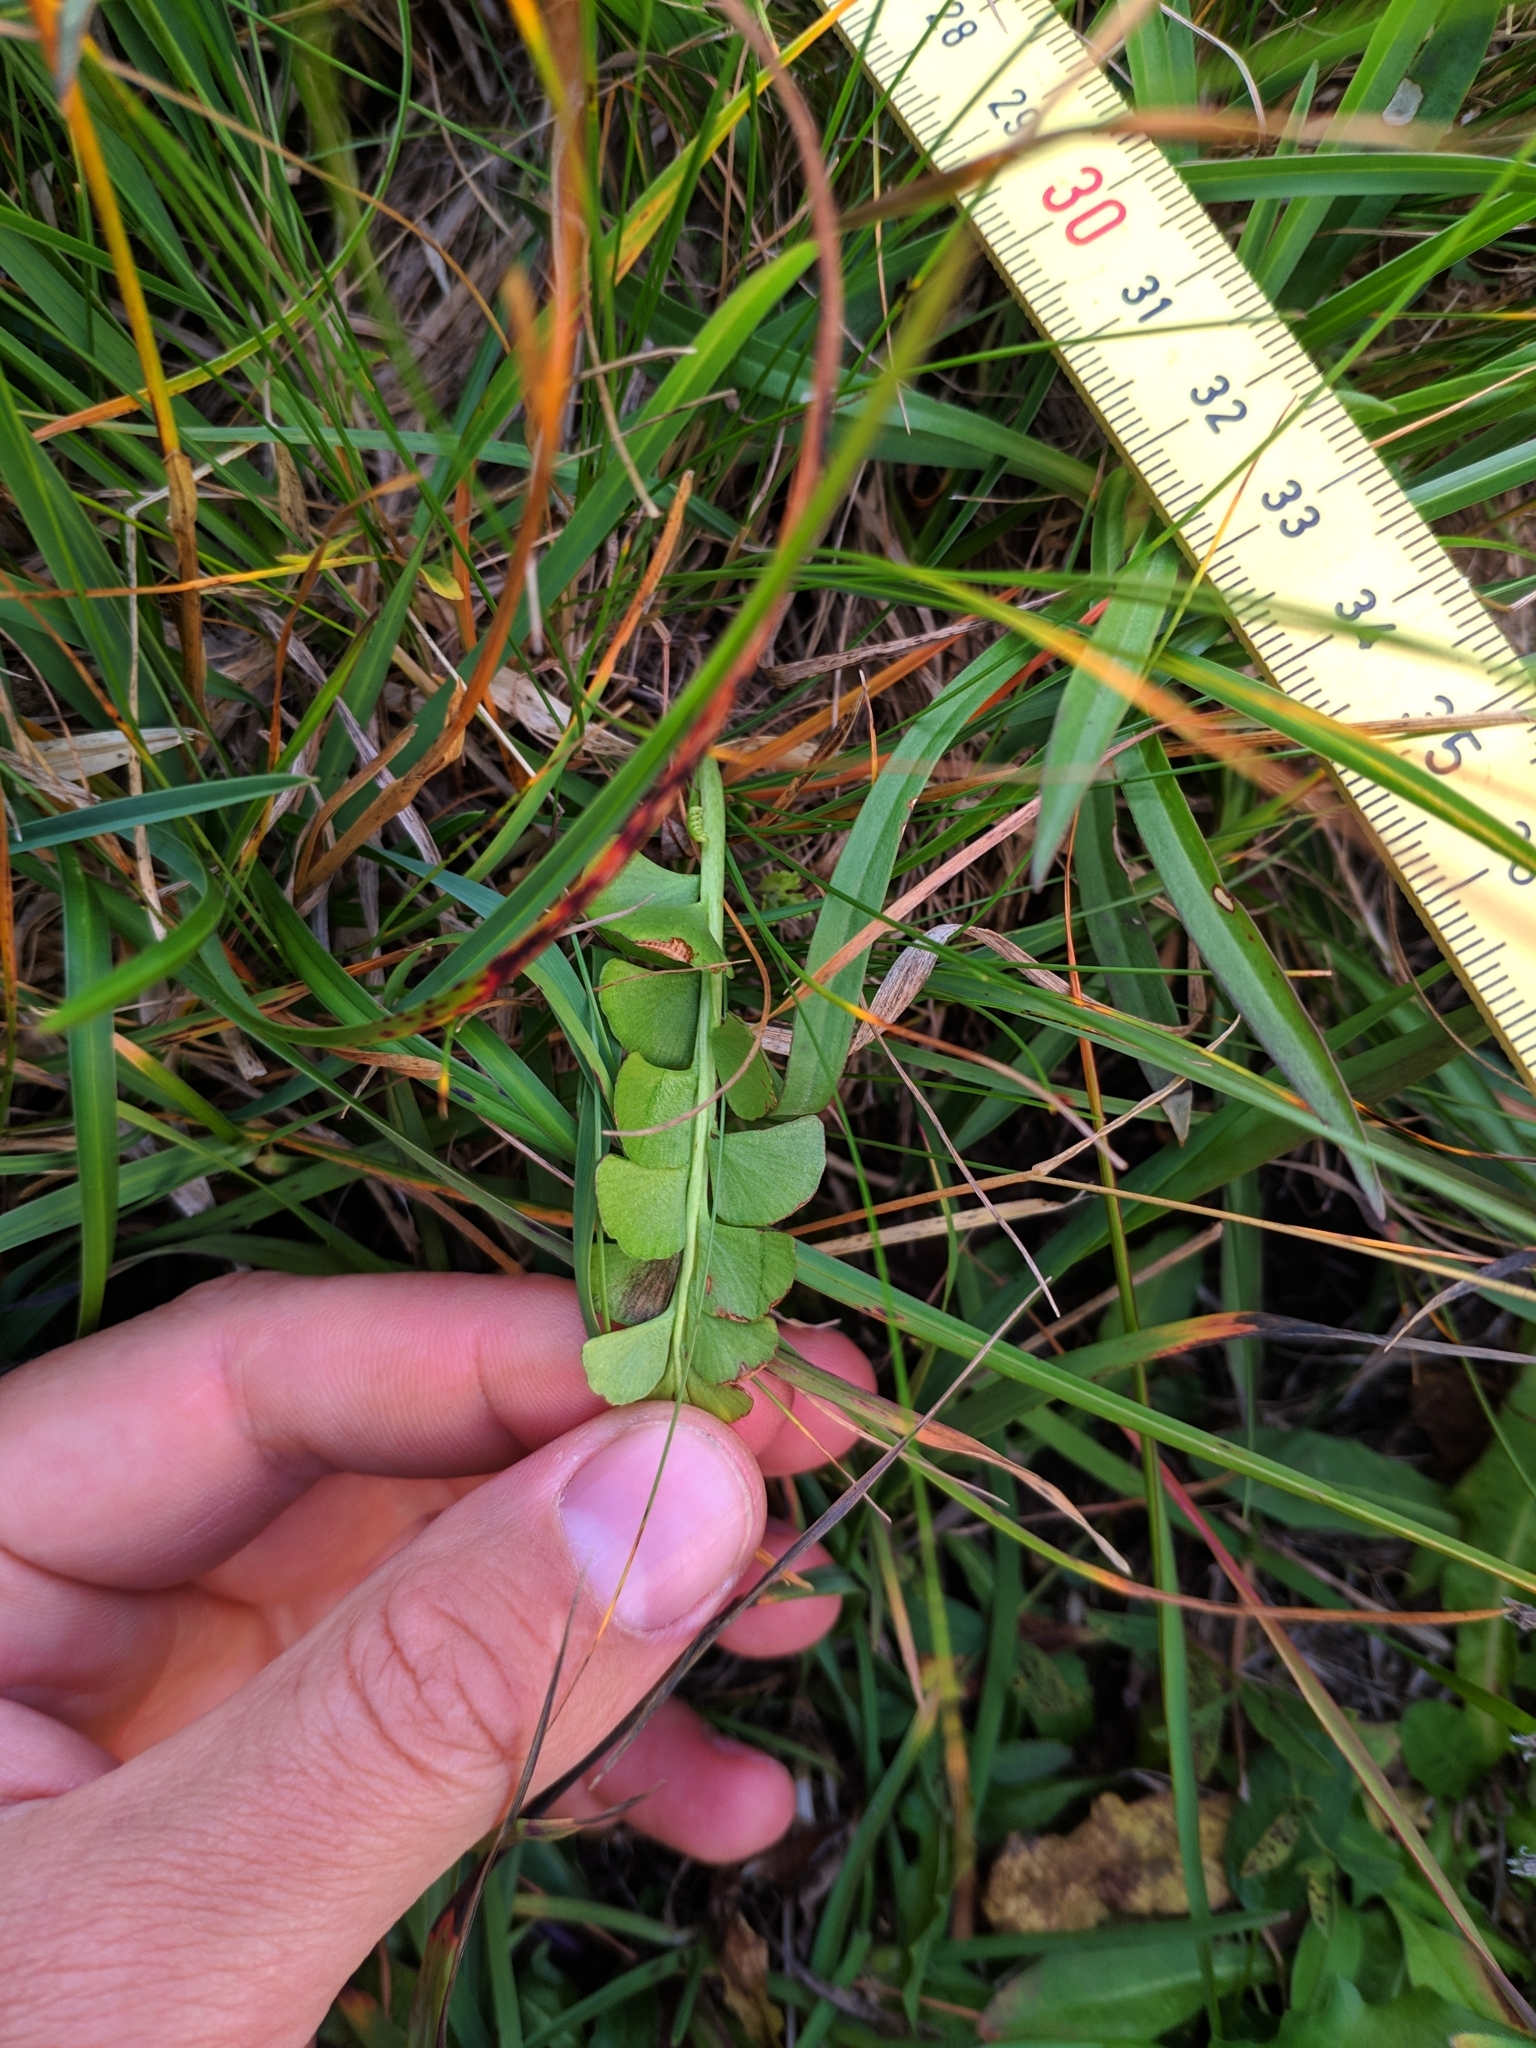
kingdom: Plantae
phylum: Tracheophyta
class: Polypodiopsida
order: Ophioglossales
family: Ophioglossaceae
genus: Botrychium
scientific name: Botrychium lunaria
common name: Moonwort
